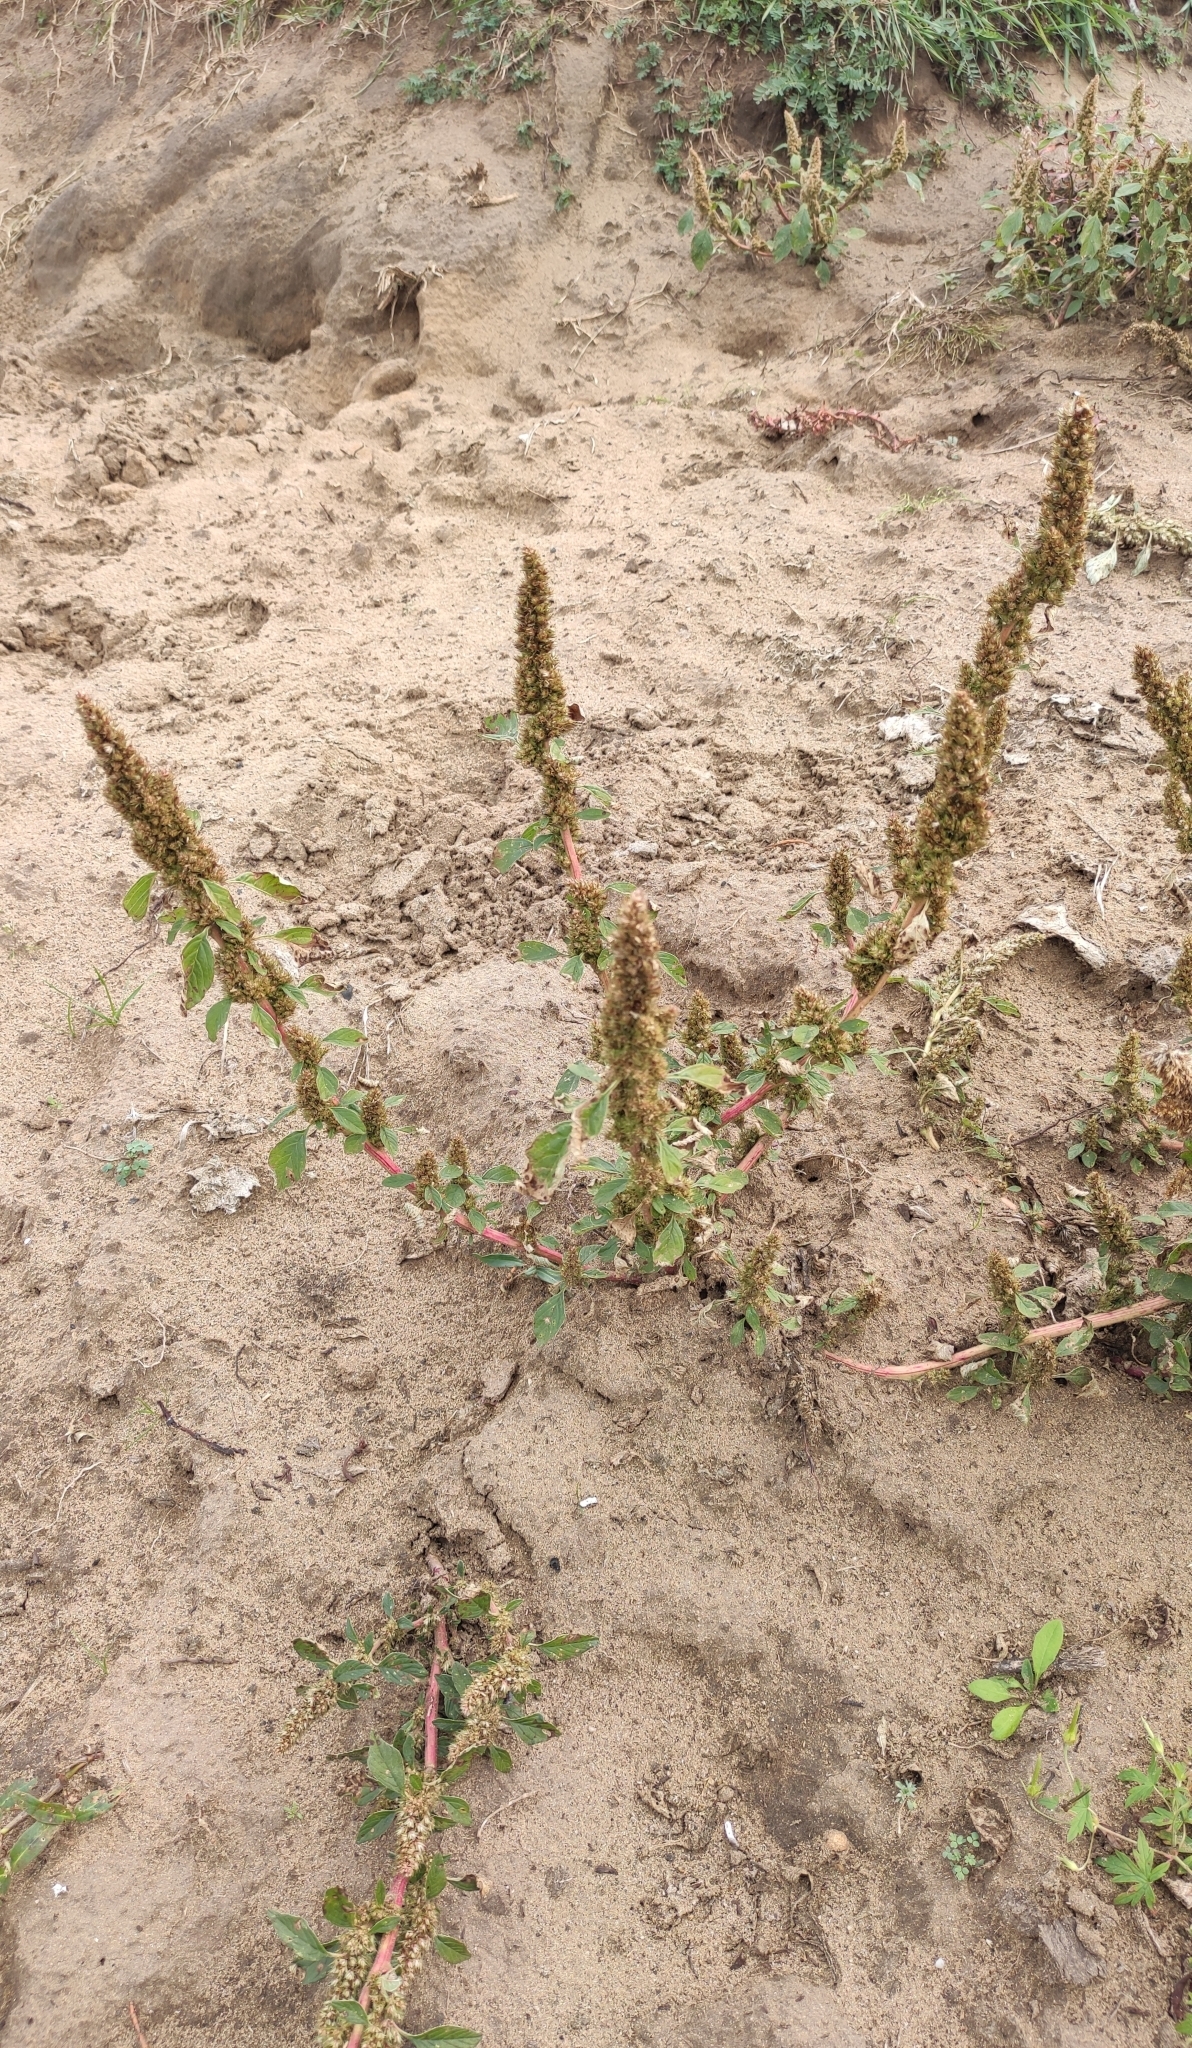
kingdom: Plantae
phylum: Tracheophyta
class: Magnoliopsida
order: Caryophyllales
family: Amaranthaceae
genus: Amaranthus
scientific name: Amaranthus retroflexus
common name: Redroot amaranth
